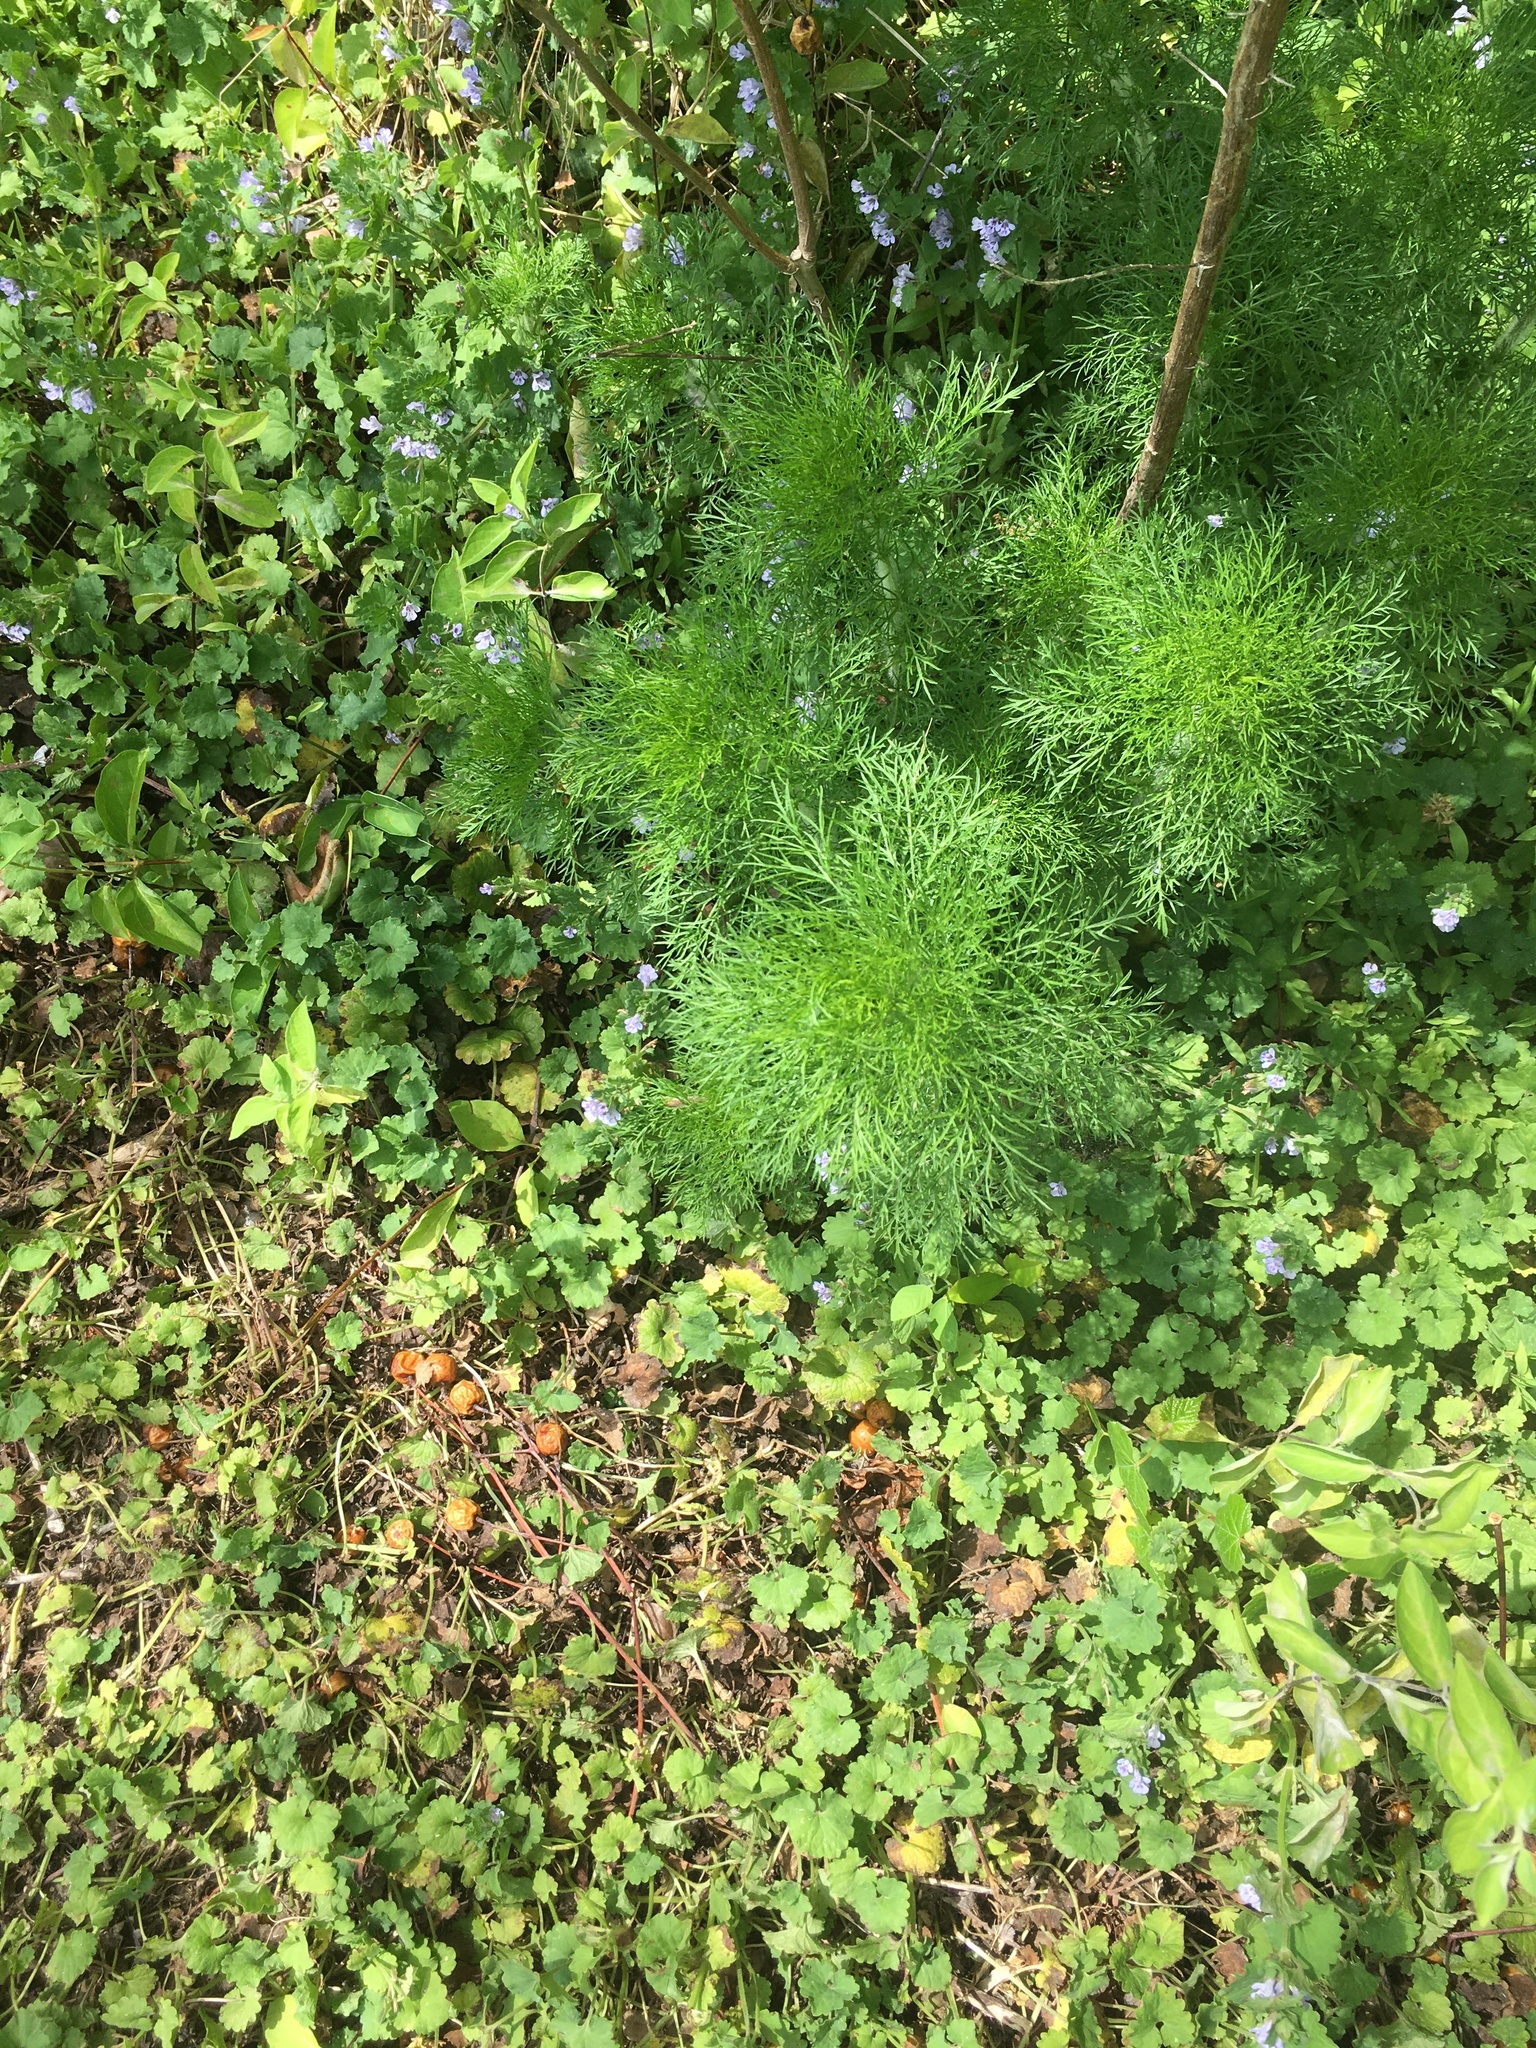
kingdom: Plantae
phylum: Tracheophyta
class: Magnoliopsida
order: Asterales
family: Asteraceae
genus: Eupatorium
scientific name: Eupatorium capillifolium
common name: Dog-fennel
